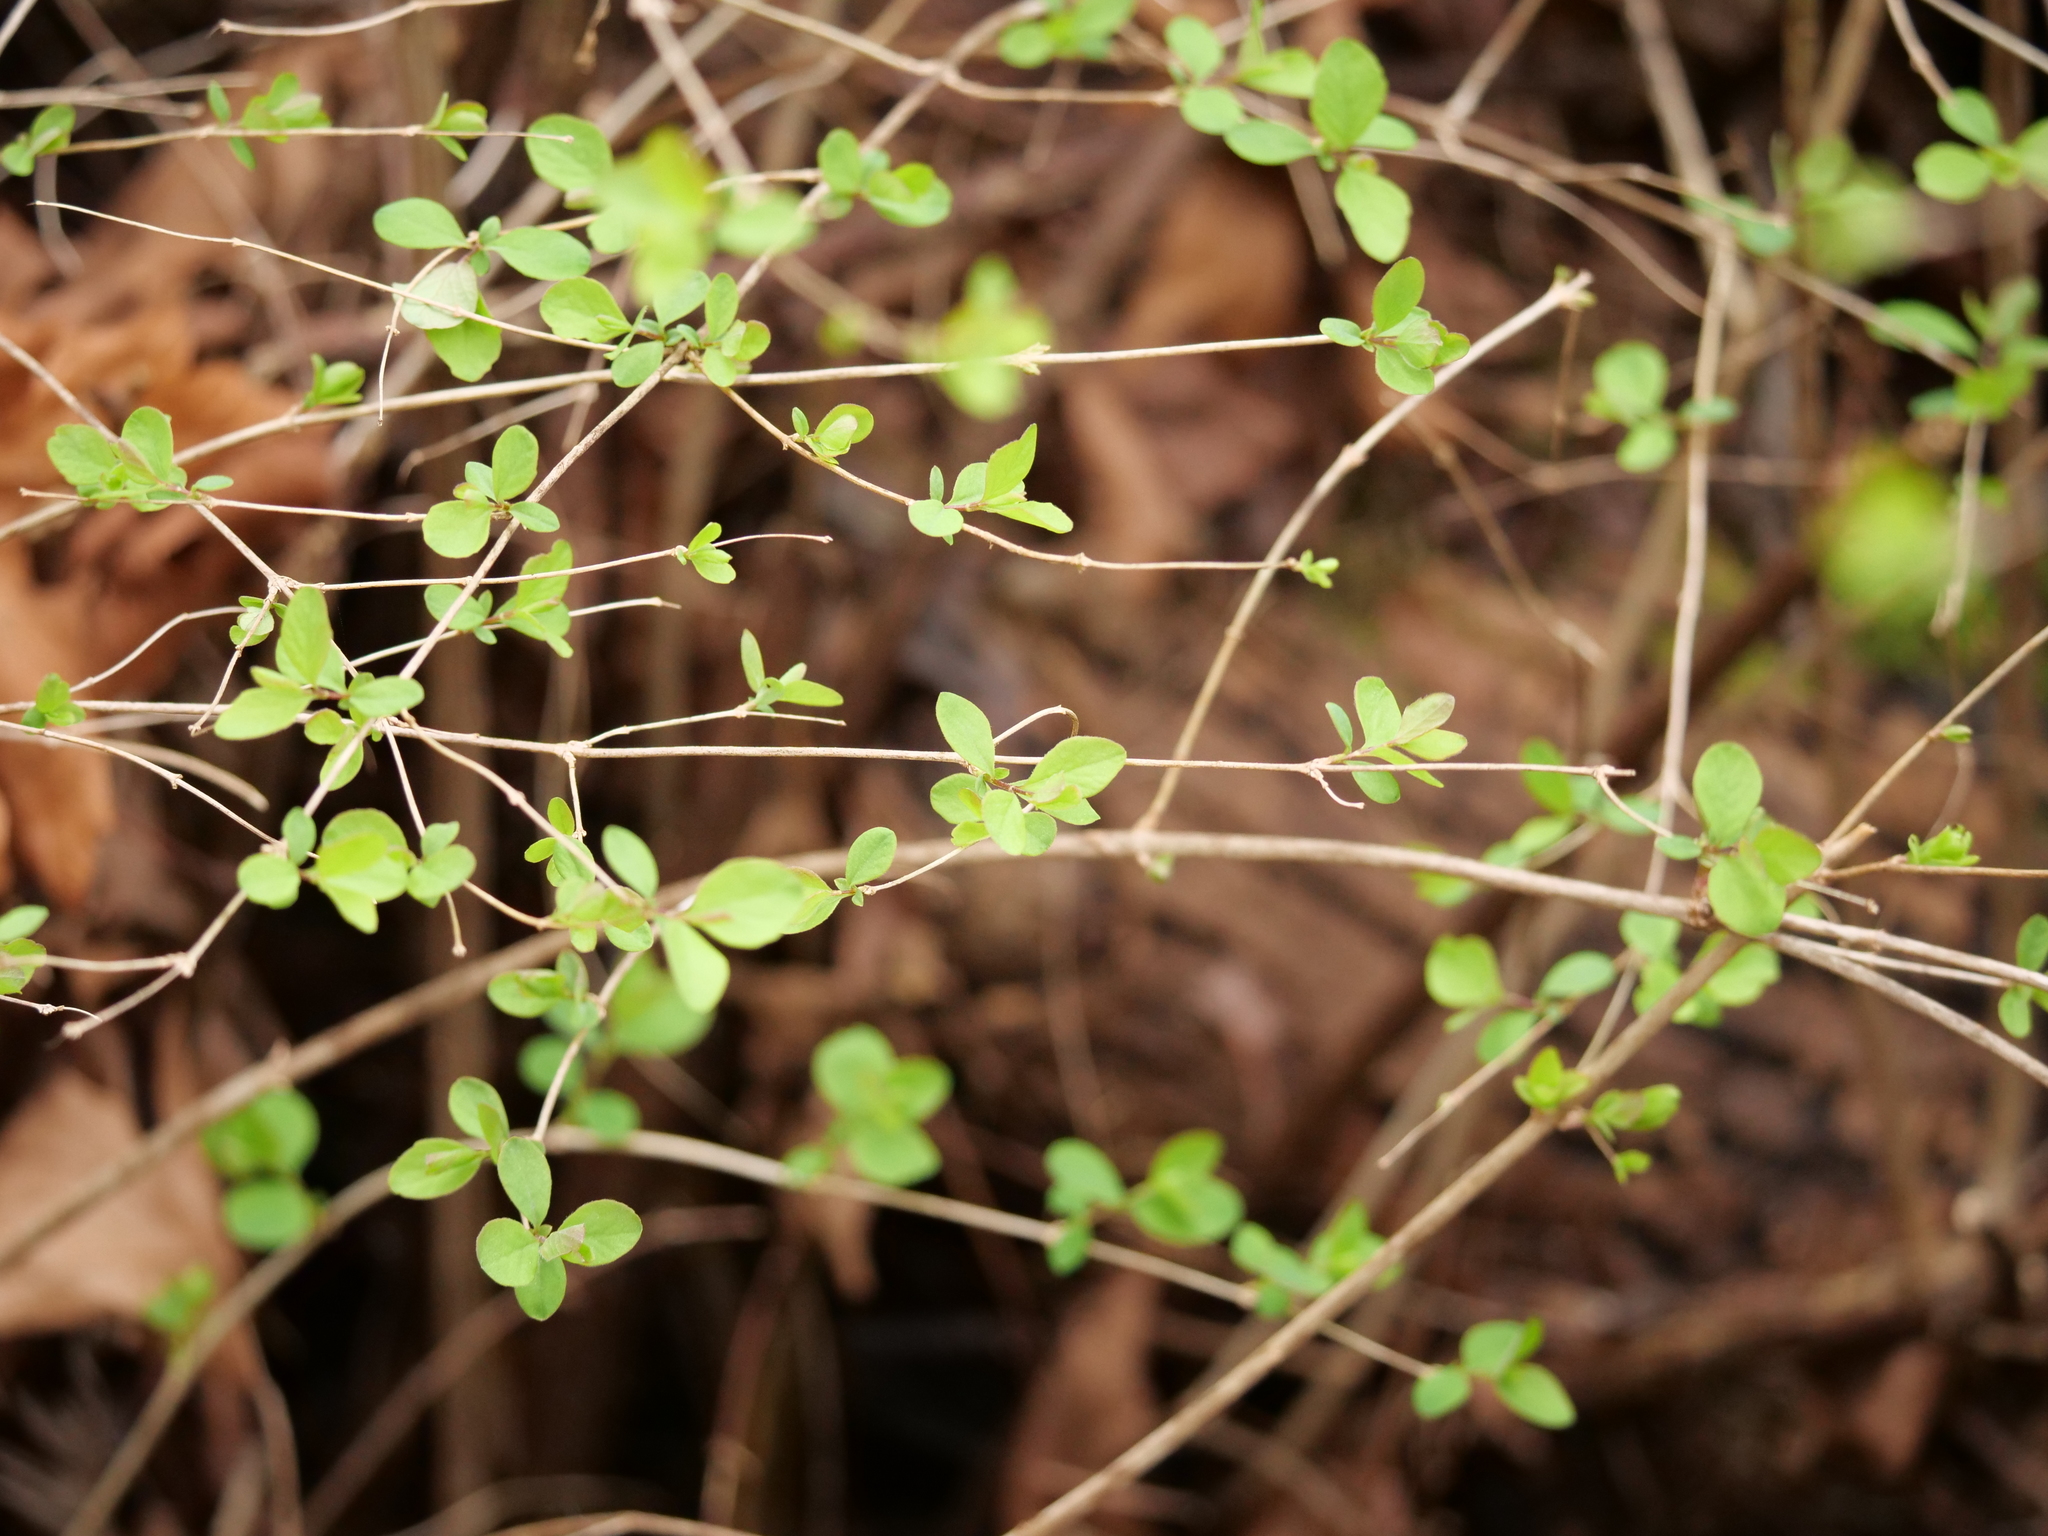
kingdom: Plantae
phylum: Tracheophyta
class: Magnoliopsida
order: Dipsacales
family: Caprifoliaceae
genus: Symphoricarpos
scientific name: Symphoricarpos albus
